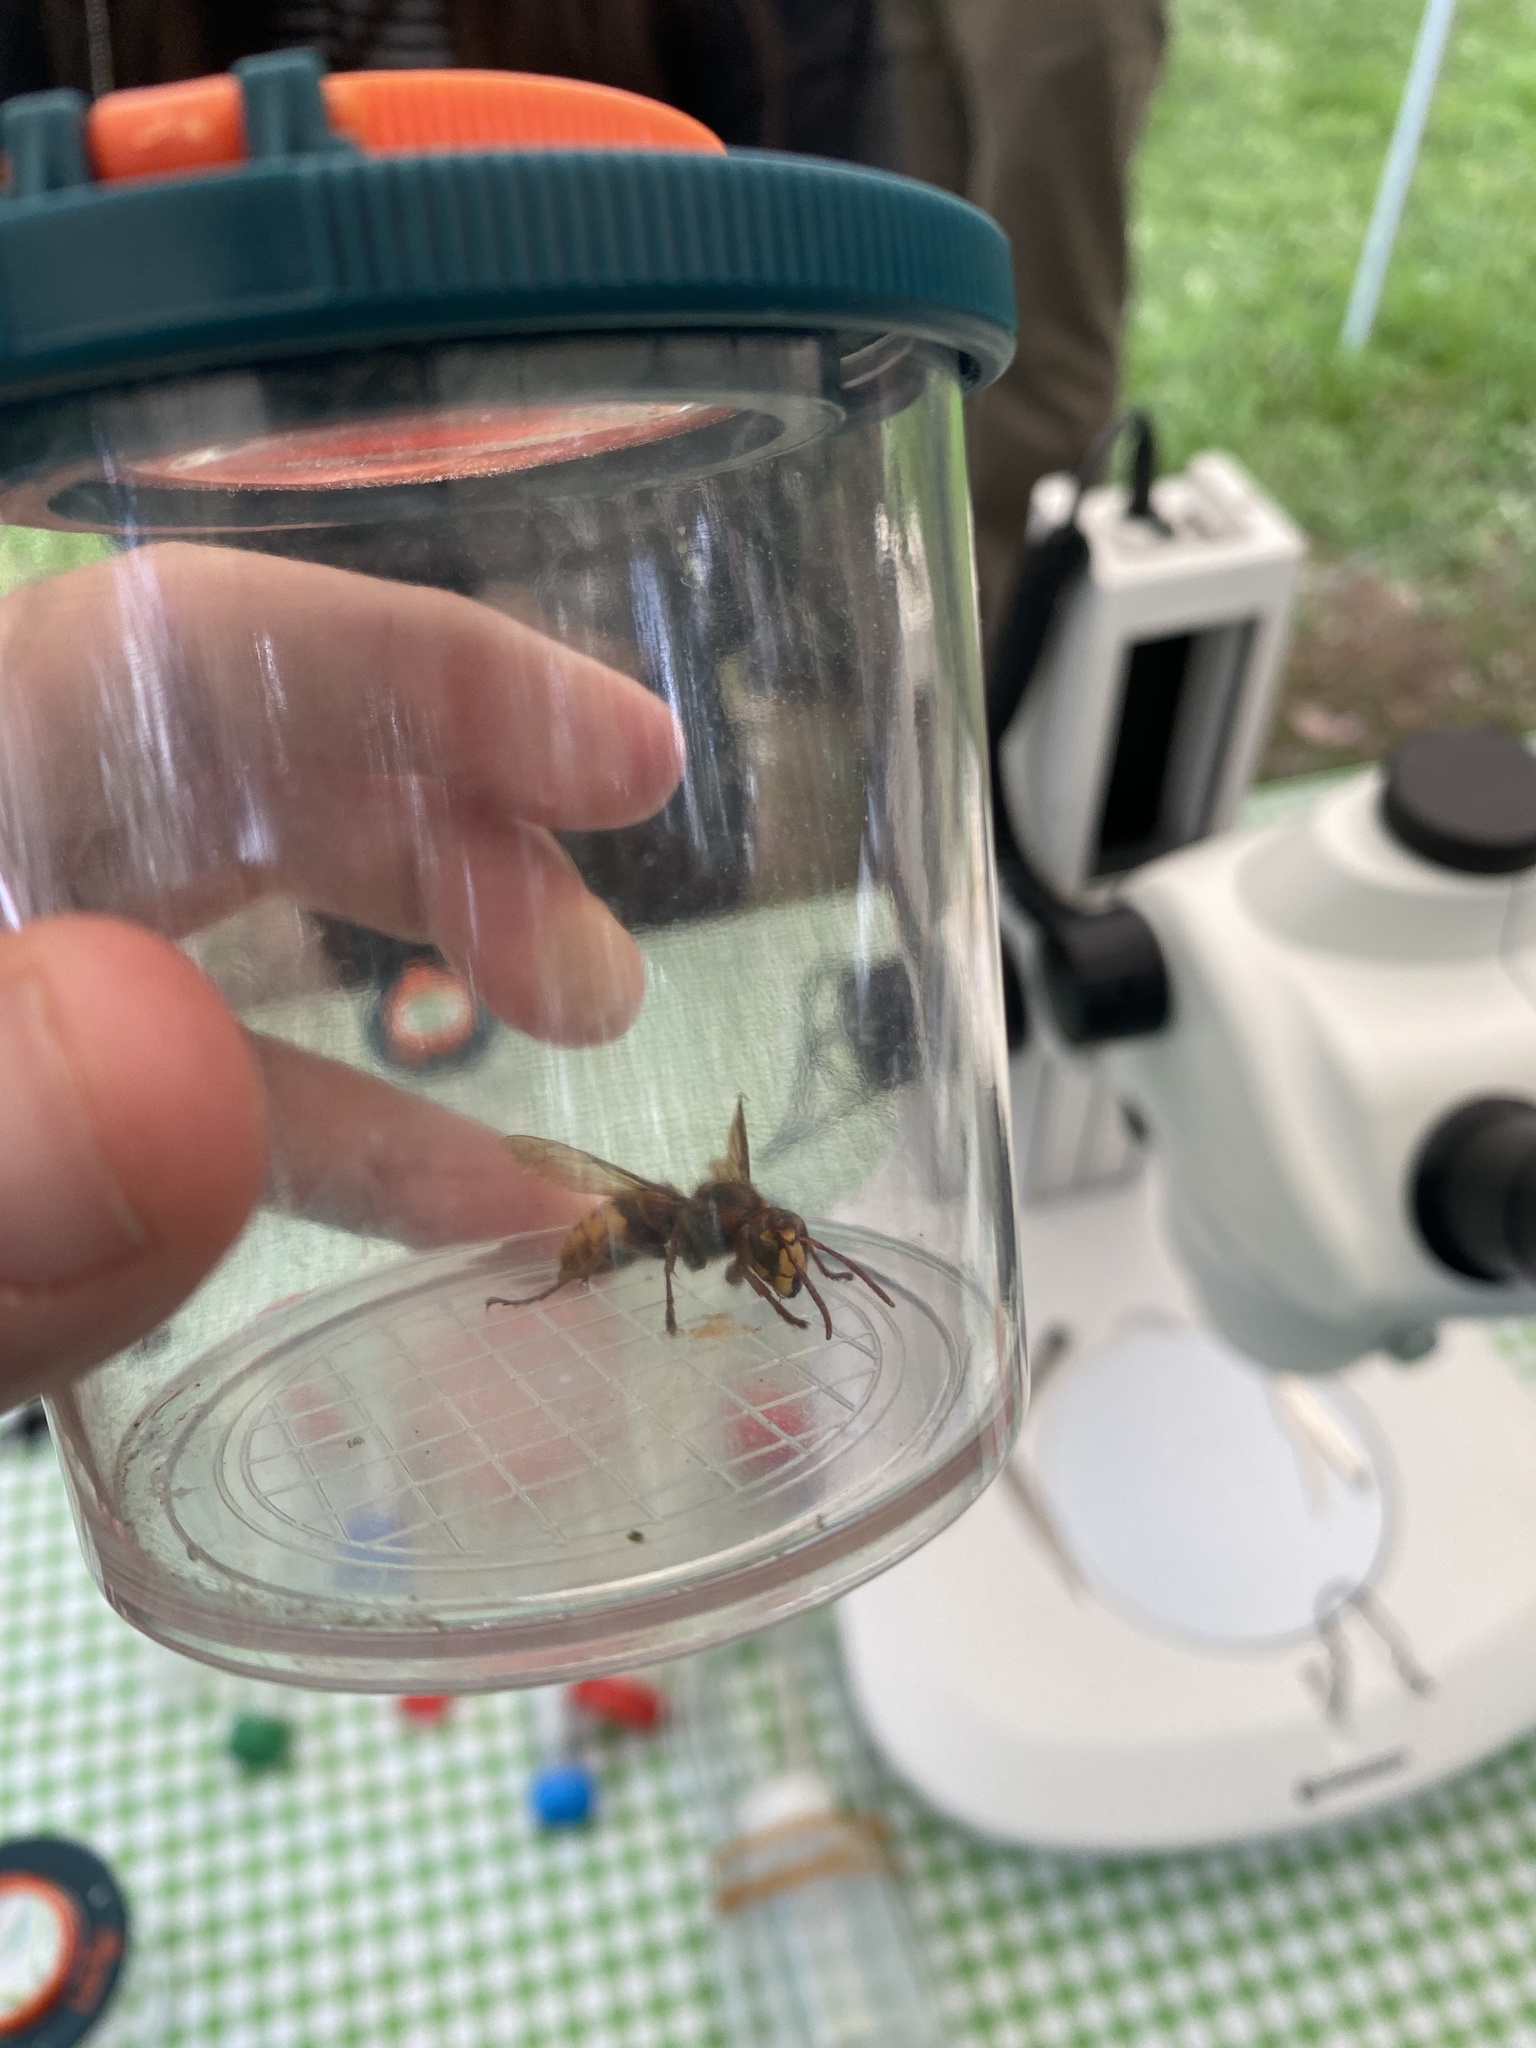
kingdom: Animalia
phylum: Arthropoda
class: Insecta
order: Hymenoptera
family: Vespidae
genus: Vespa
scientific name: Vespa crabro
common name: Hornet
